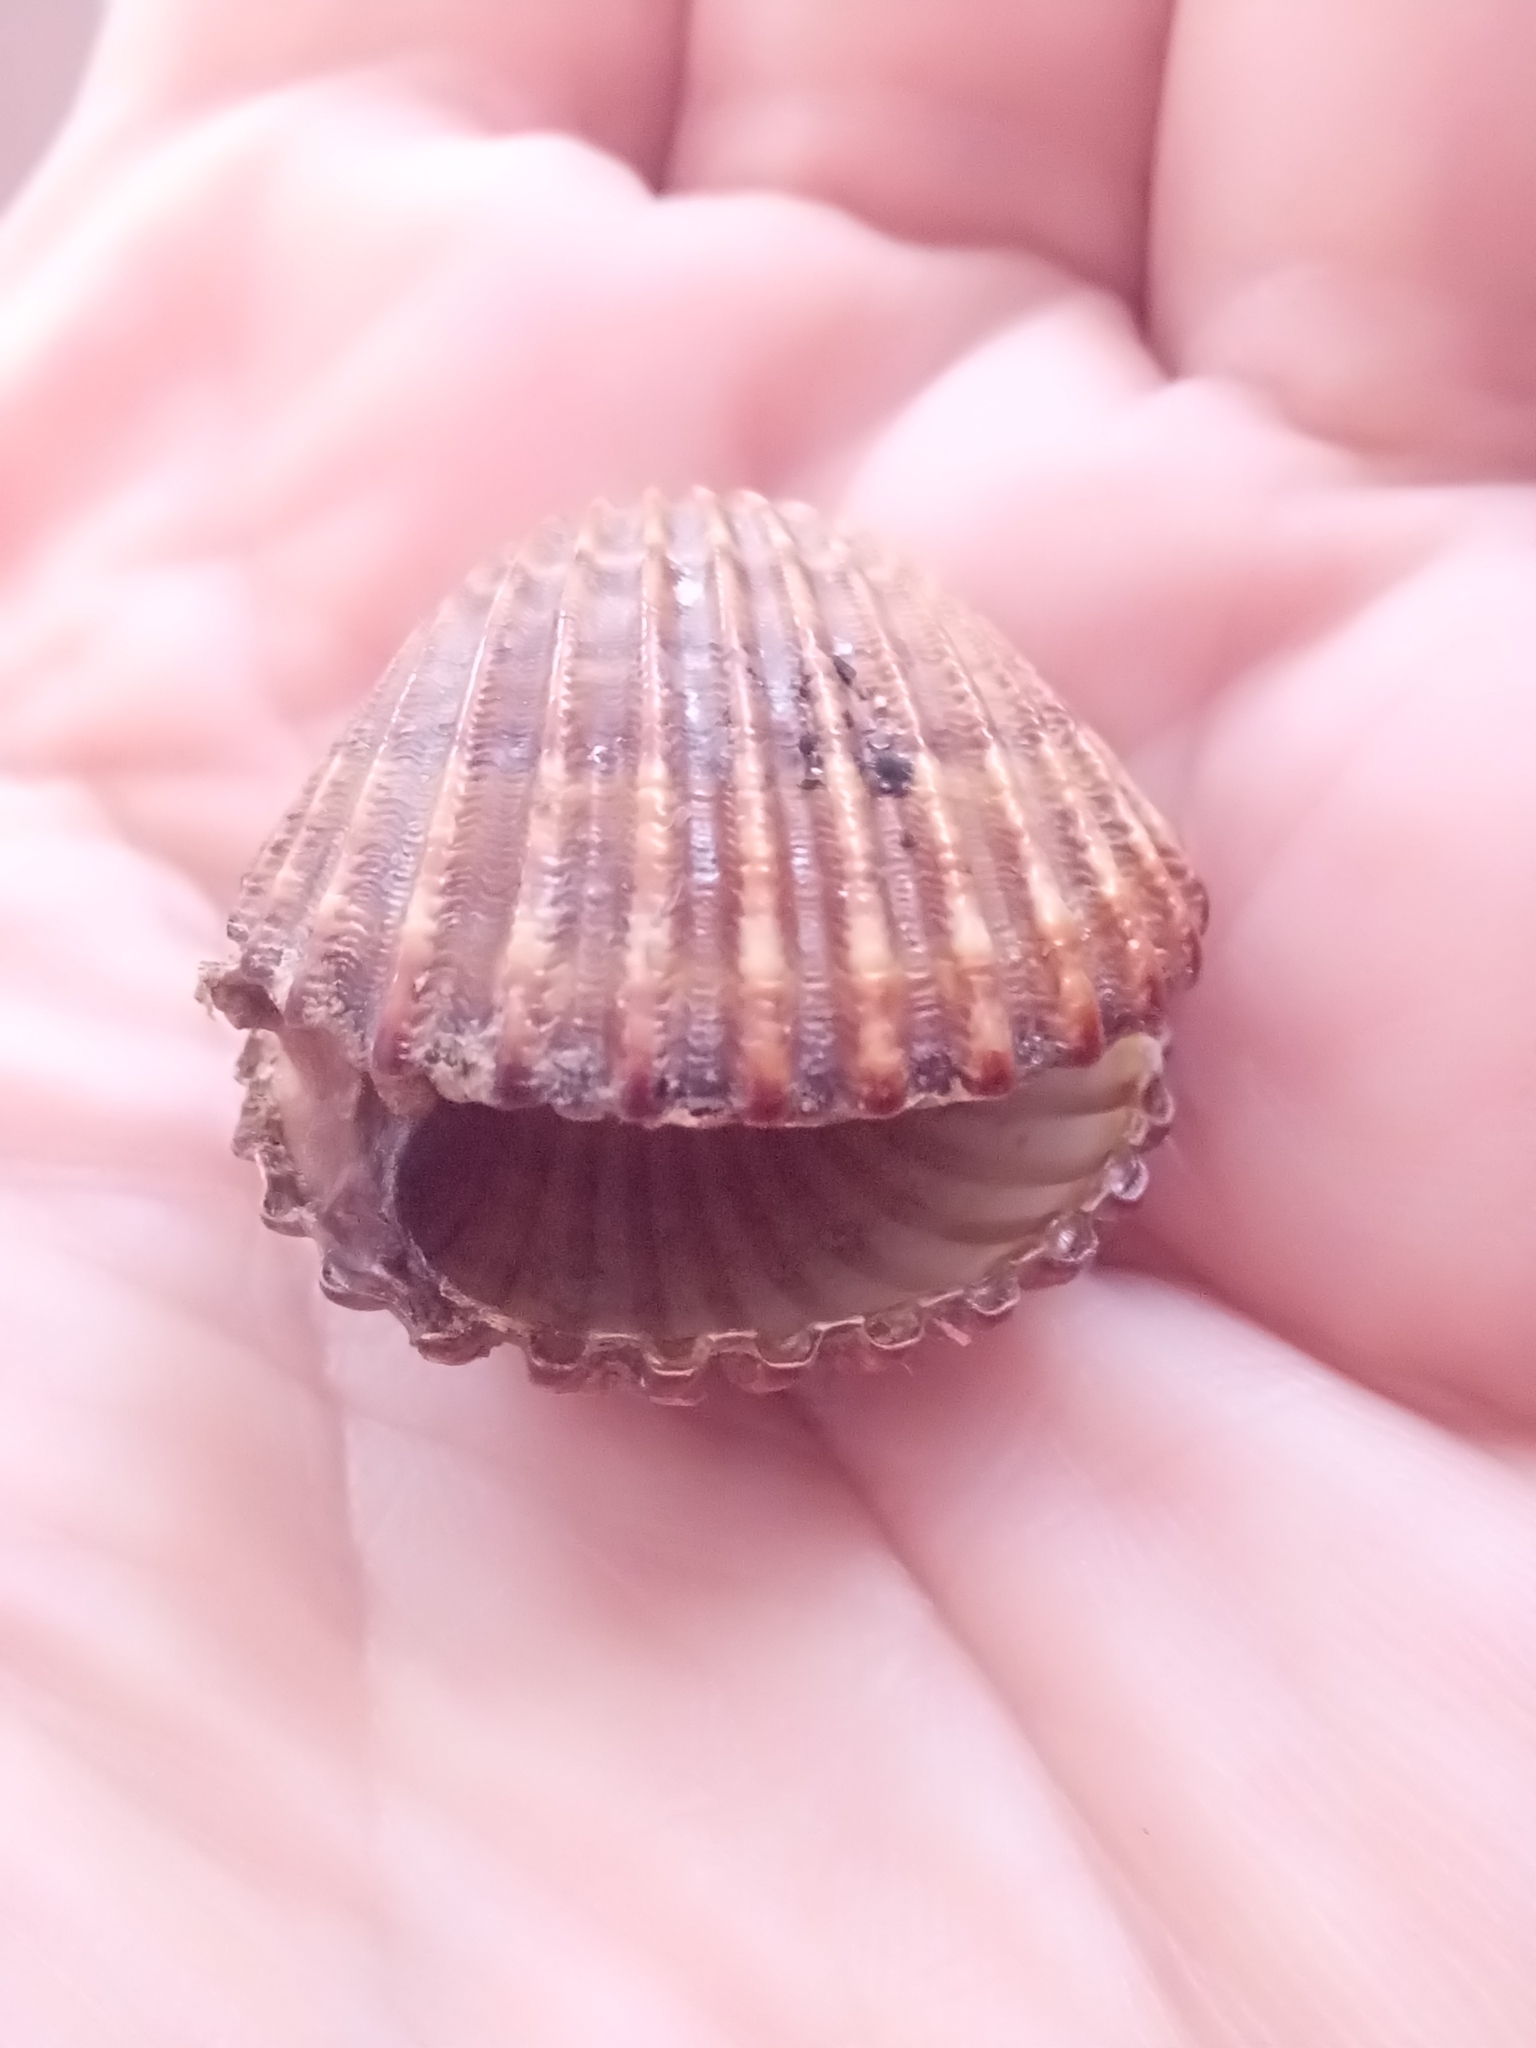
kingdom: Animalia
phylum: Mollusca
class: Bivalvia
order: Cardiida
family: Cardiidae
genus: Acanthocardia
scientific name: Acanthocardia tuberculata
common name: Rough cockle
